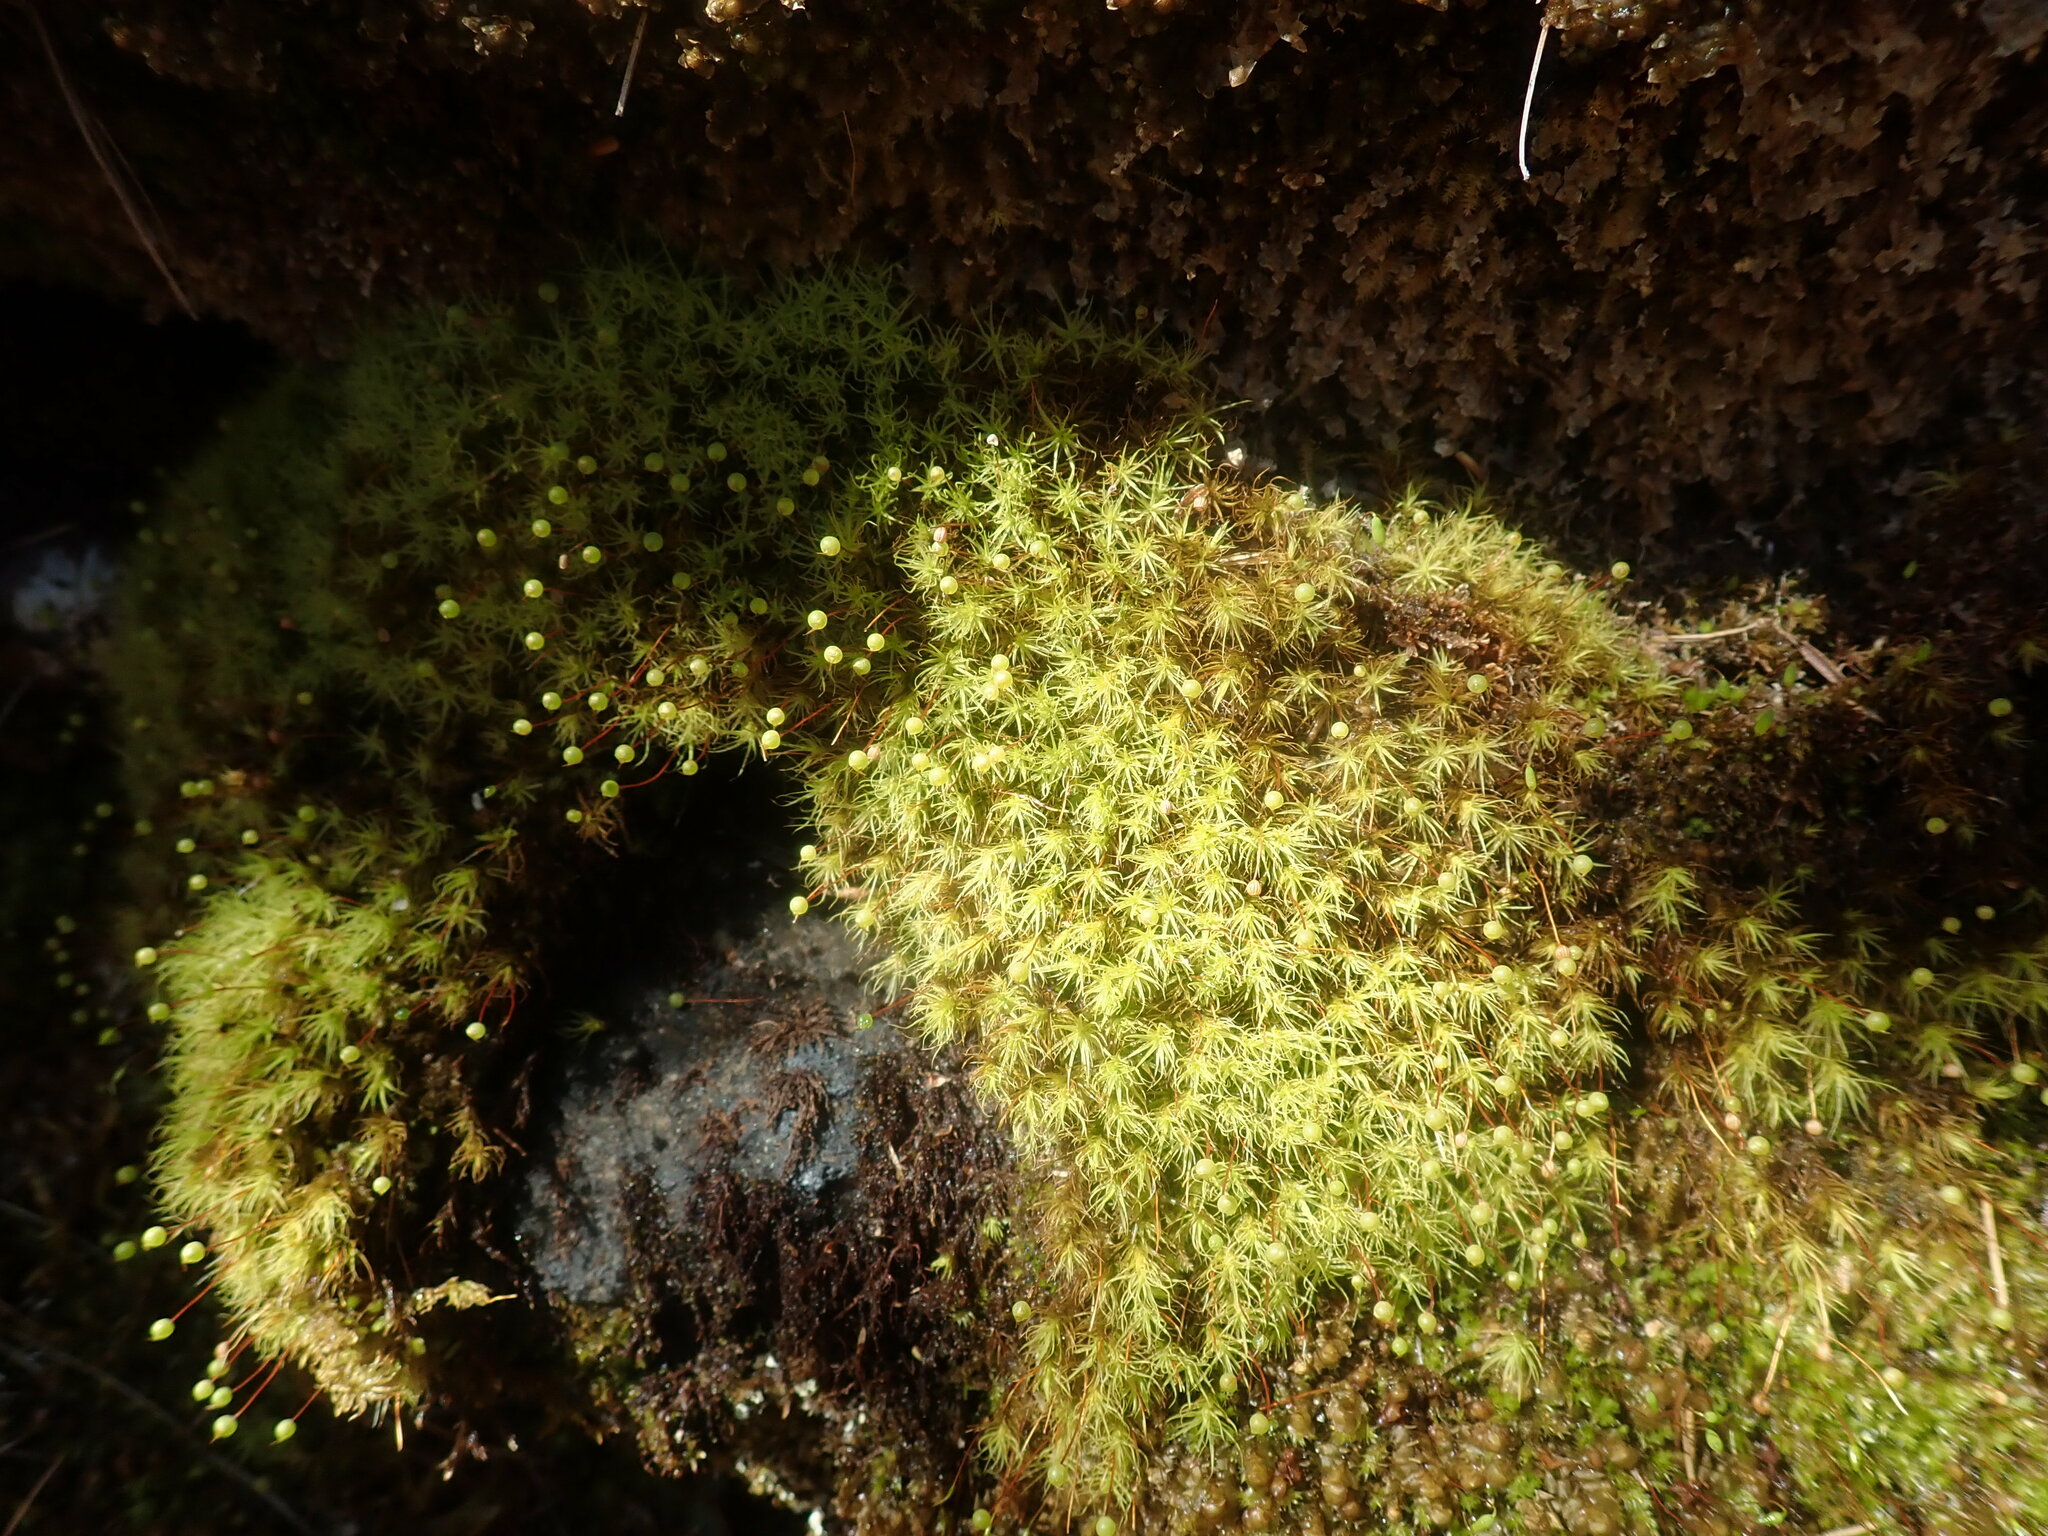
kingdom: Plantae
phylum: Bryophyta
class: Bryopsida
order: Bartramiales
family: Bartramiaceae
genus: Bartramia
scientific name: Bartramia ithyphylla
